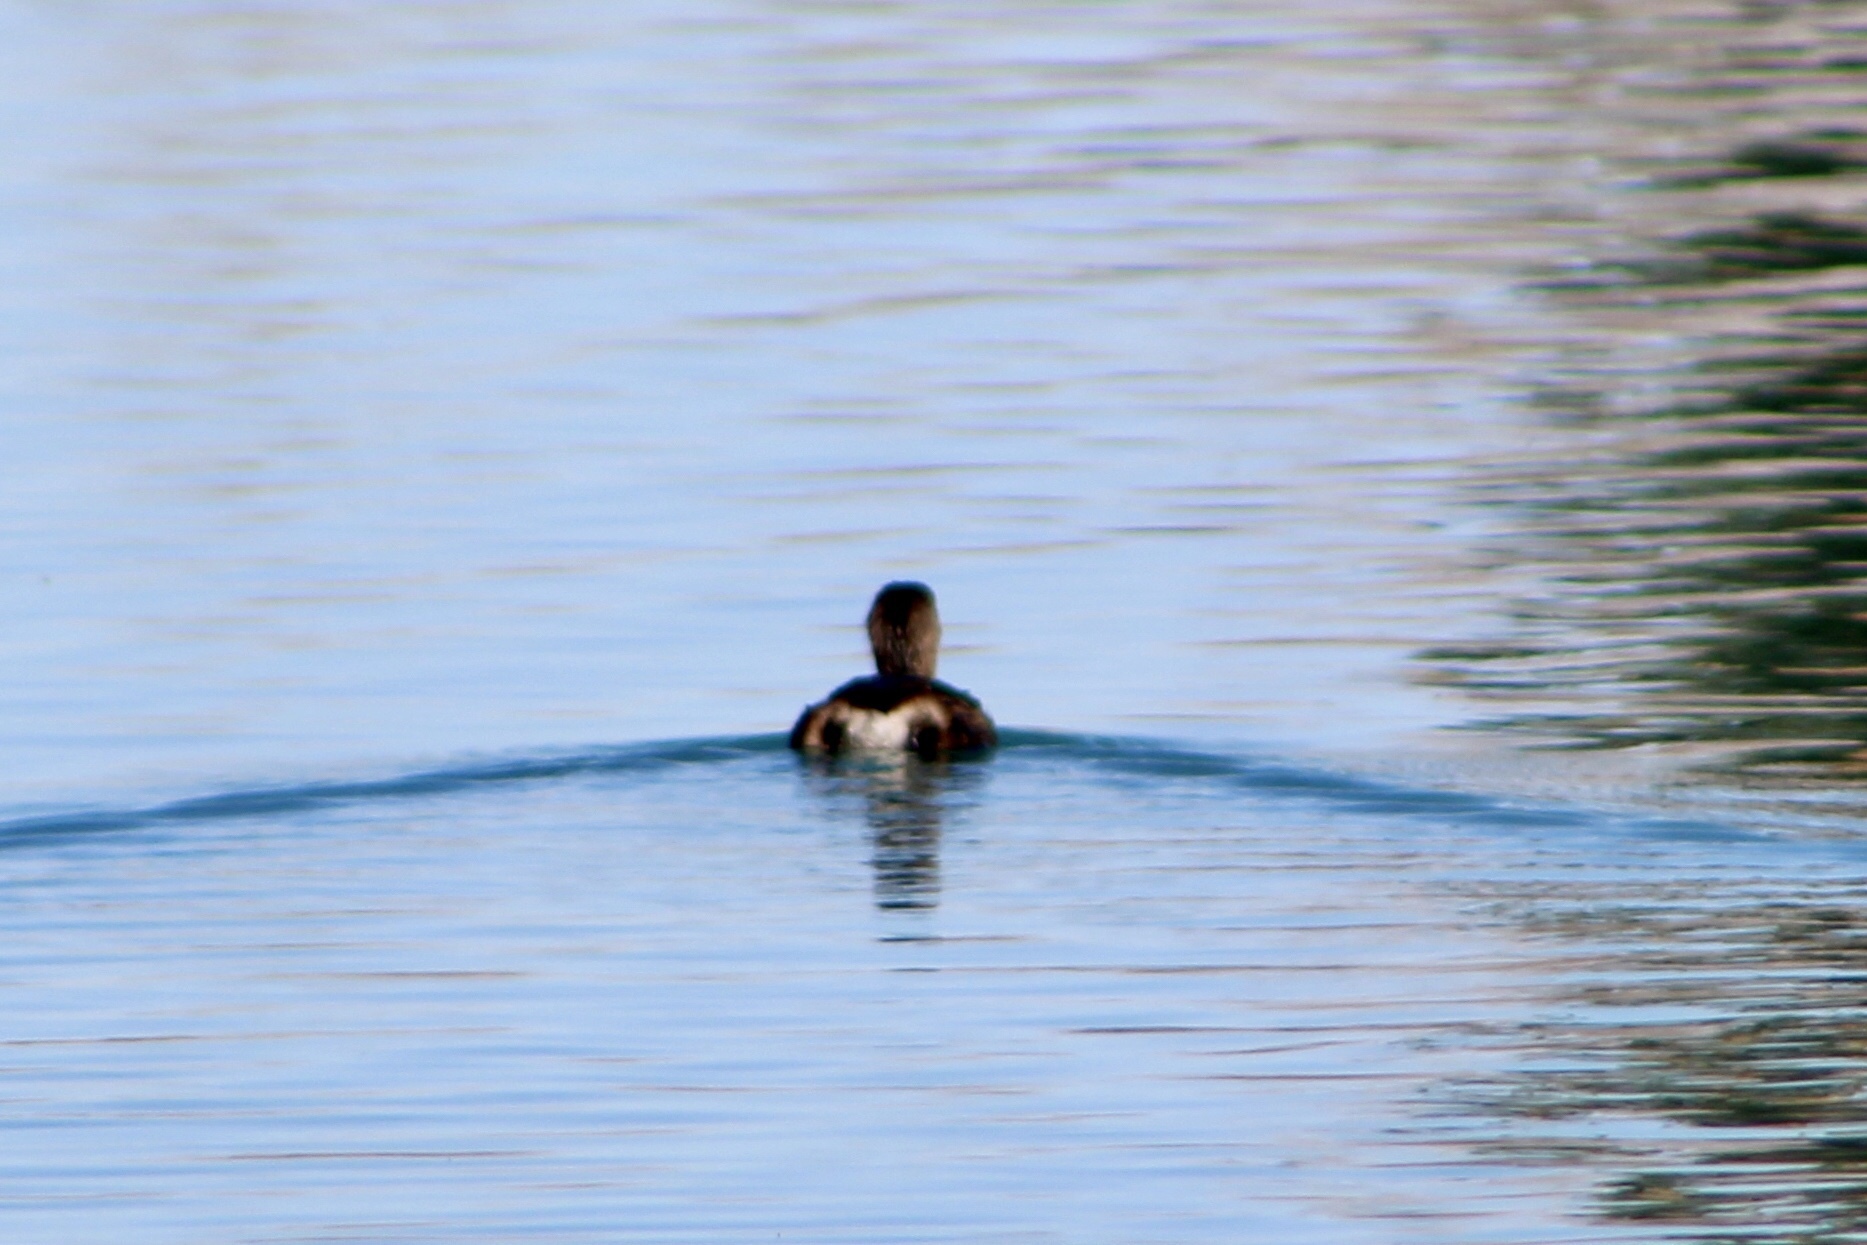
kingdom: Animalia
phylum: Chordata
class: Aves
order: Podicipediformes
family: Podicipedidae
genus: Podilymbus
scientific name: Podilymbus podiceps
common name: Pied-billed grebe
